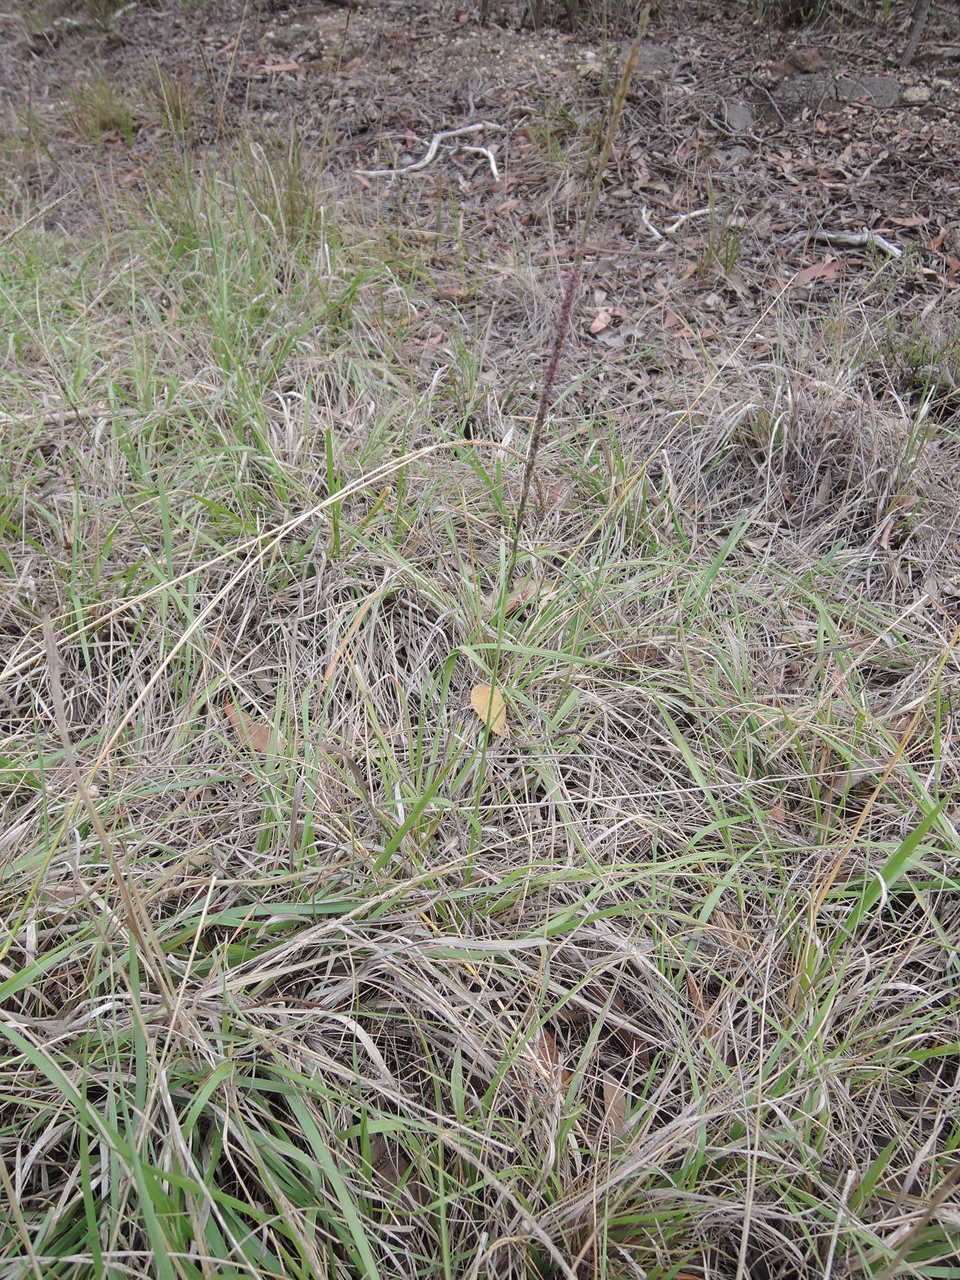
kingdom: Plantae
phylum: Tracheophyta
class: Liliopsida
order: Poales
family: Poaceae
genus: Sporobolus
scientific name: Sporobolus africanus
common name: African dropseed
